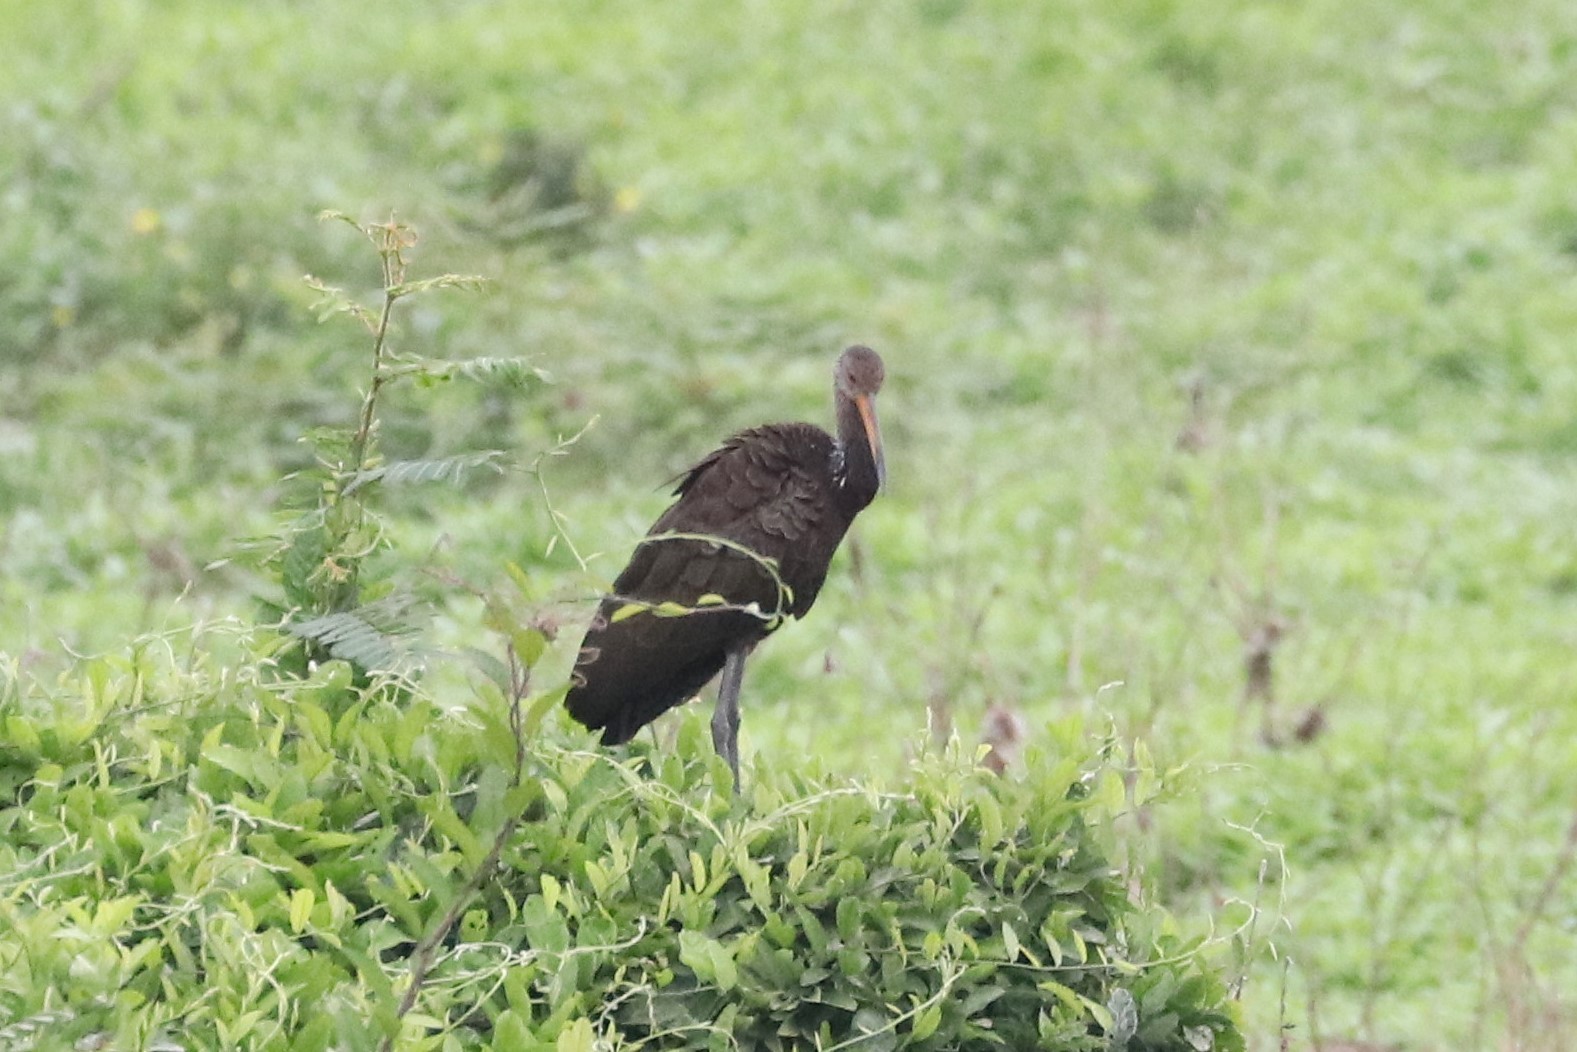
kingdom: Animalia
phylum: Chordata
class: Aves
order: Gruiformes
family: Aramidae
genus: Aramus
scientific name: Aramus guarauna
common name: Limpkin
